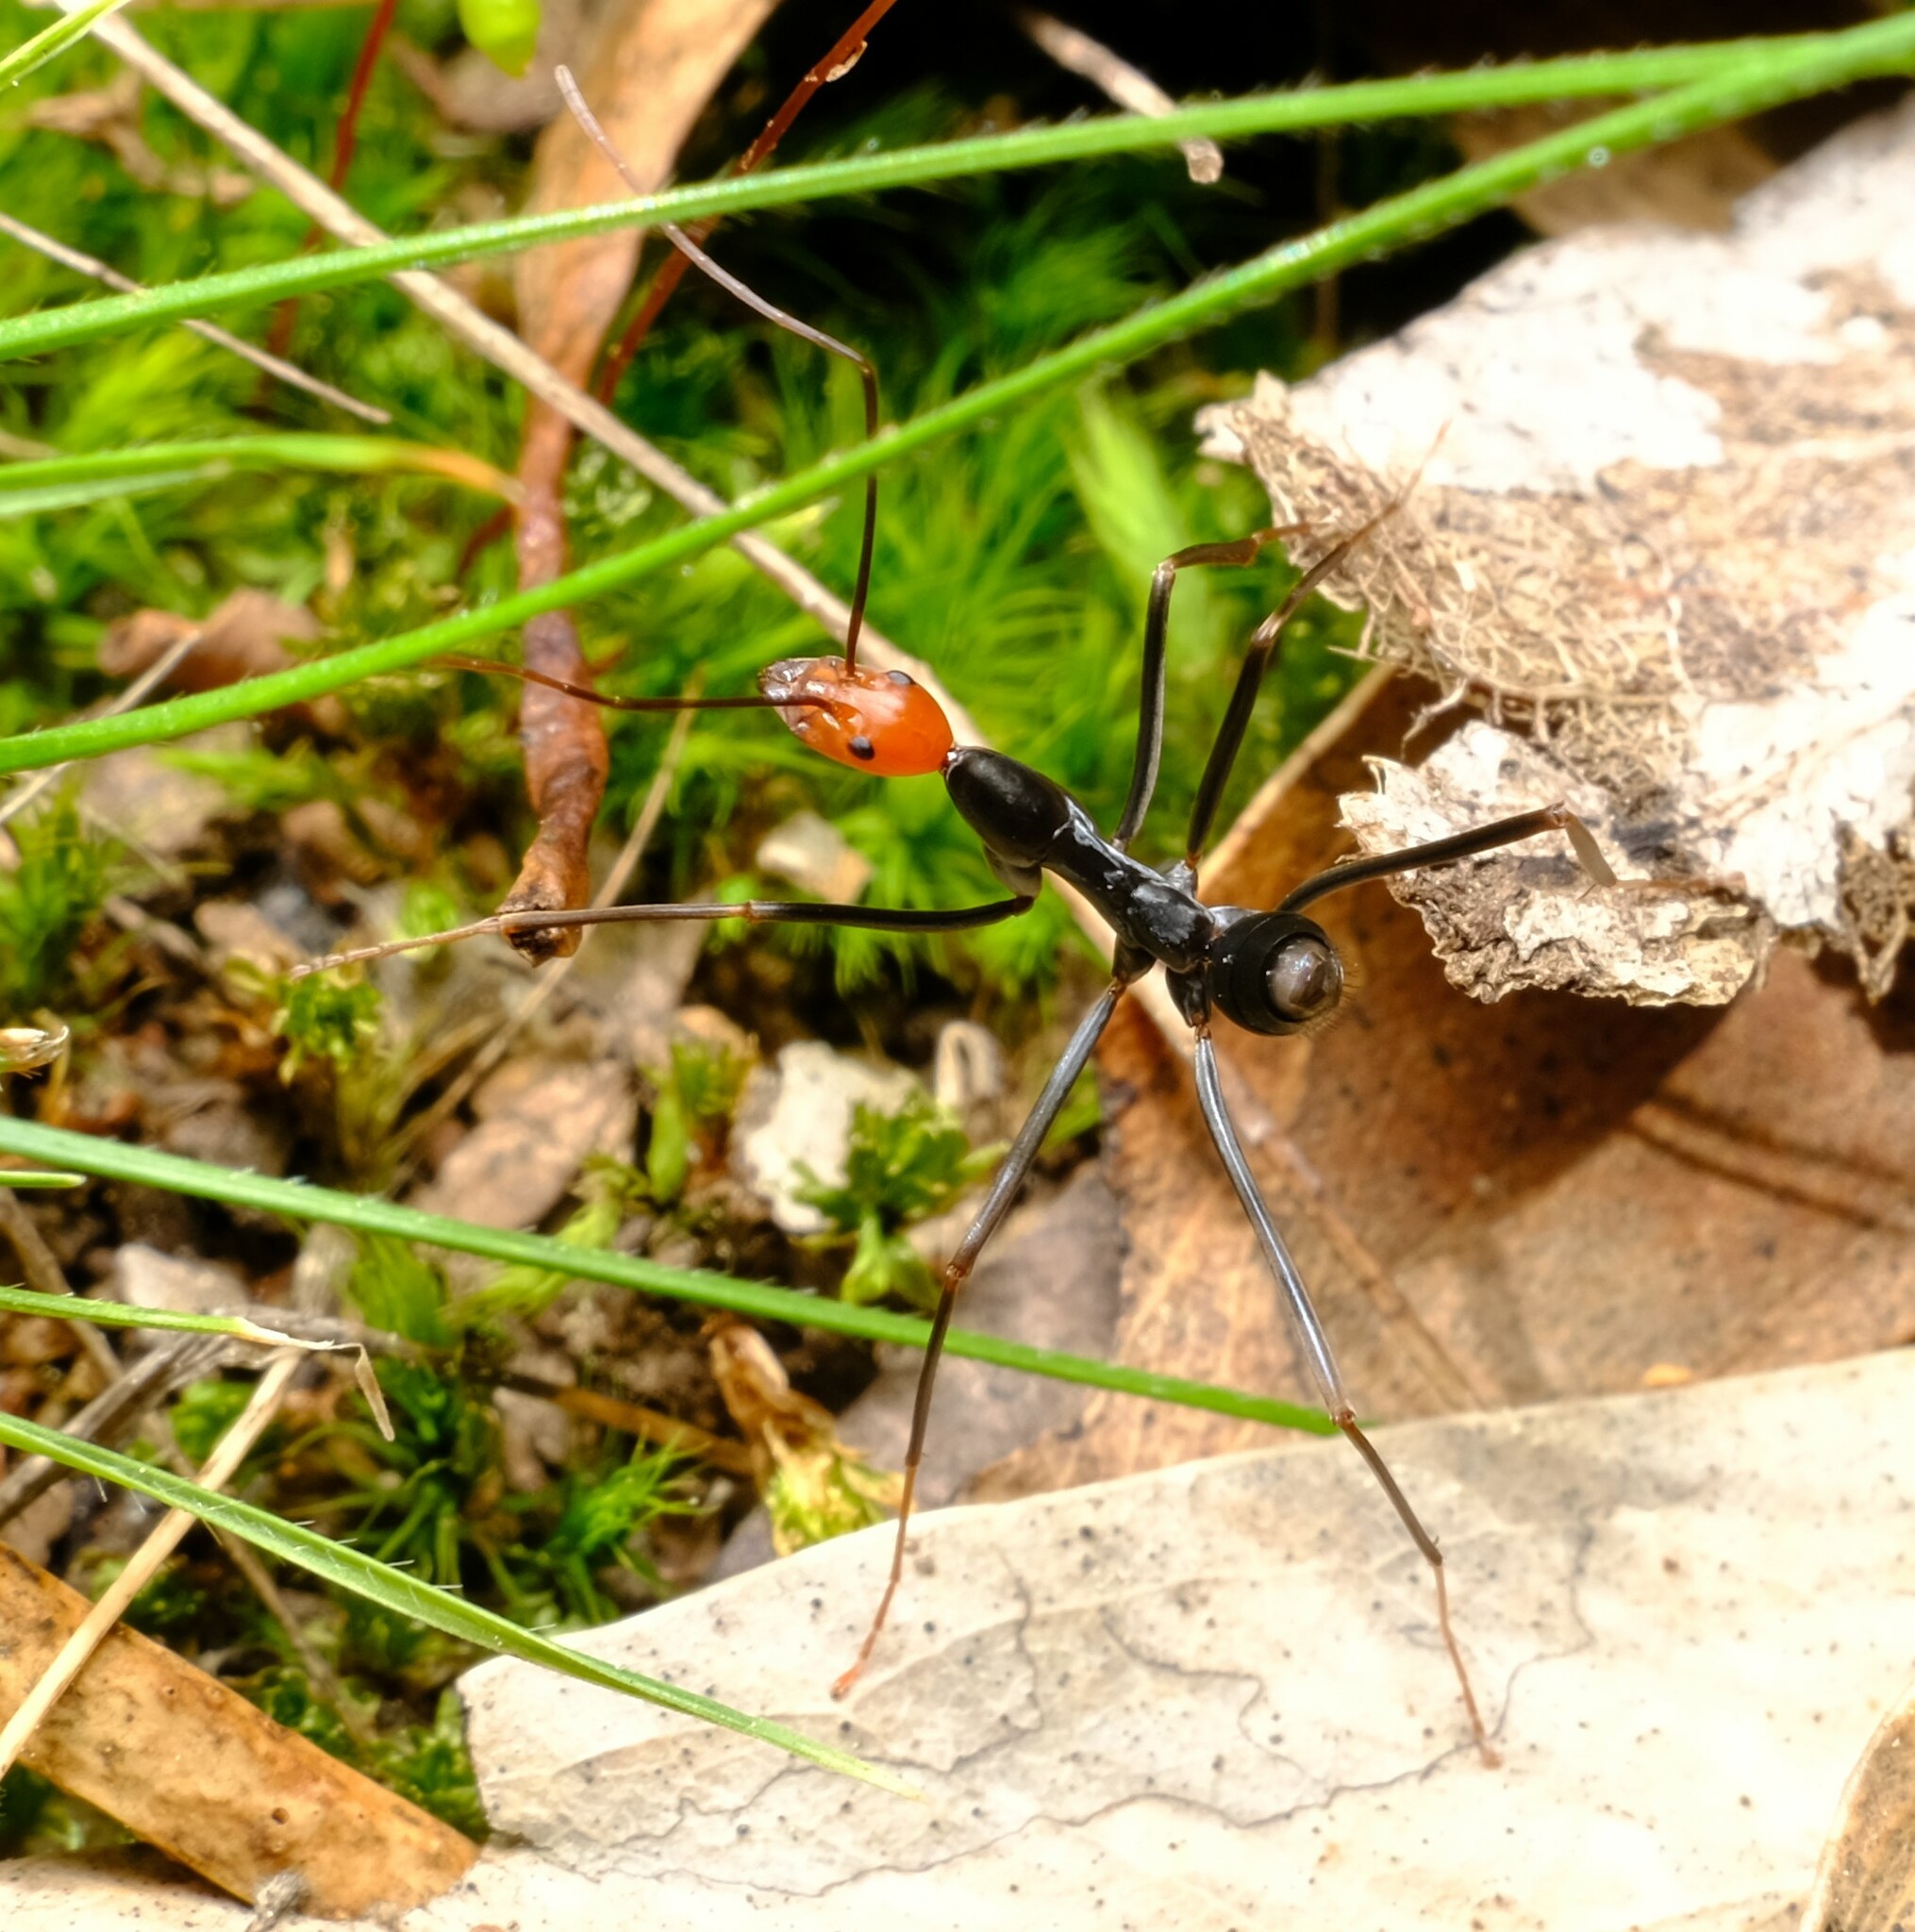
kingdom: Animalia
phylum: Arthropoda
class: Insecta
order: Hymenoptera
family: Formicidae
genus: Leptomyrmex
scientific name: Leptomyrmex erythrocephalus
